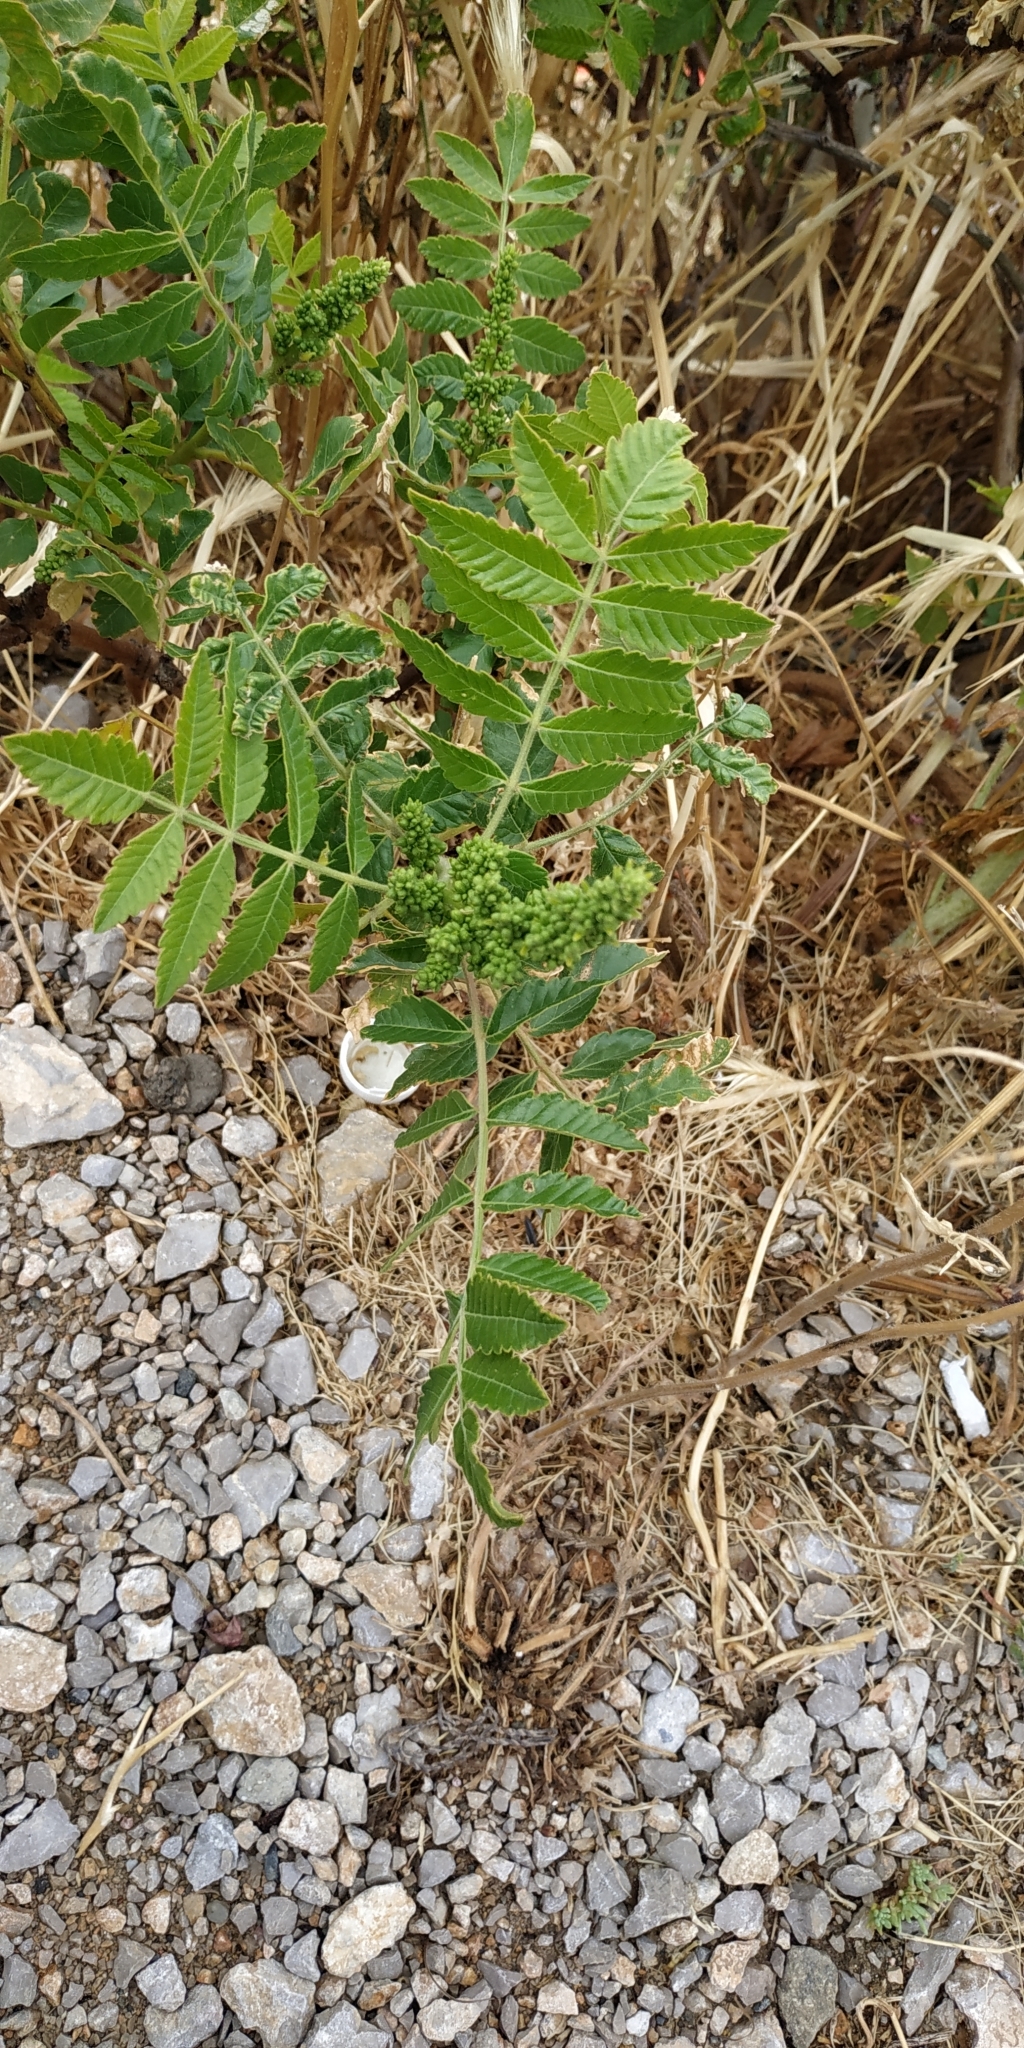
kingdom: Plantae
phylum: Tracheophyta
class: Magnoliopsida
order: Sapindales
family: Anacardiaceae
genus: Rhus
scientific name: Rhus coriaria
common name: Tanner's sumach
